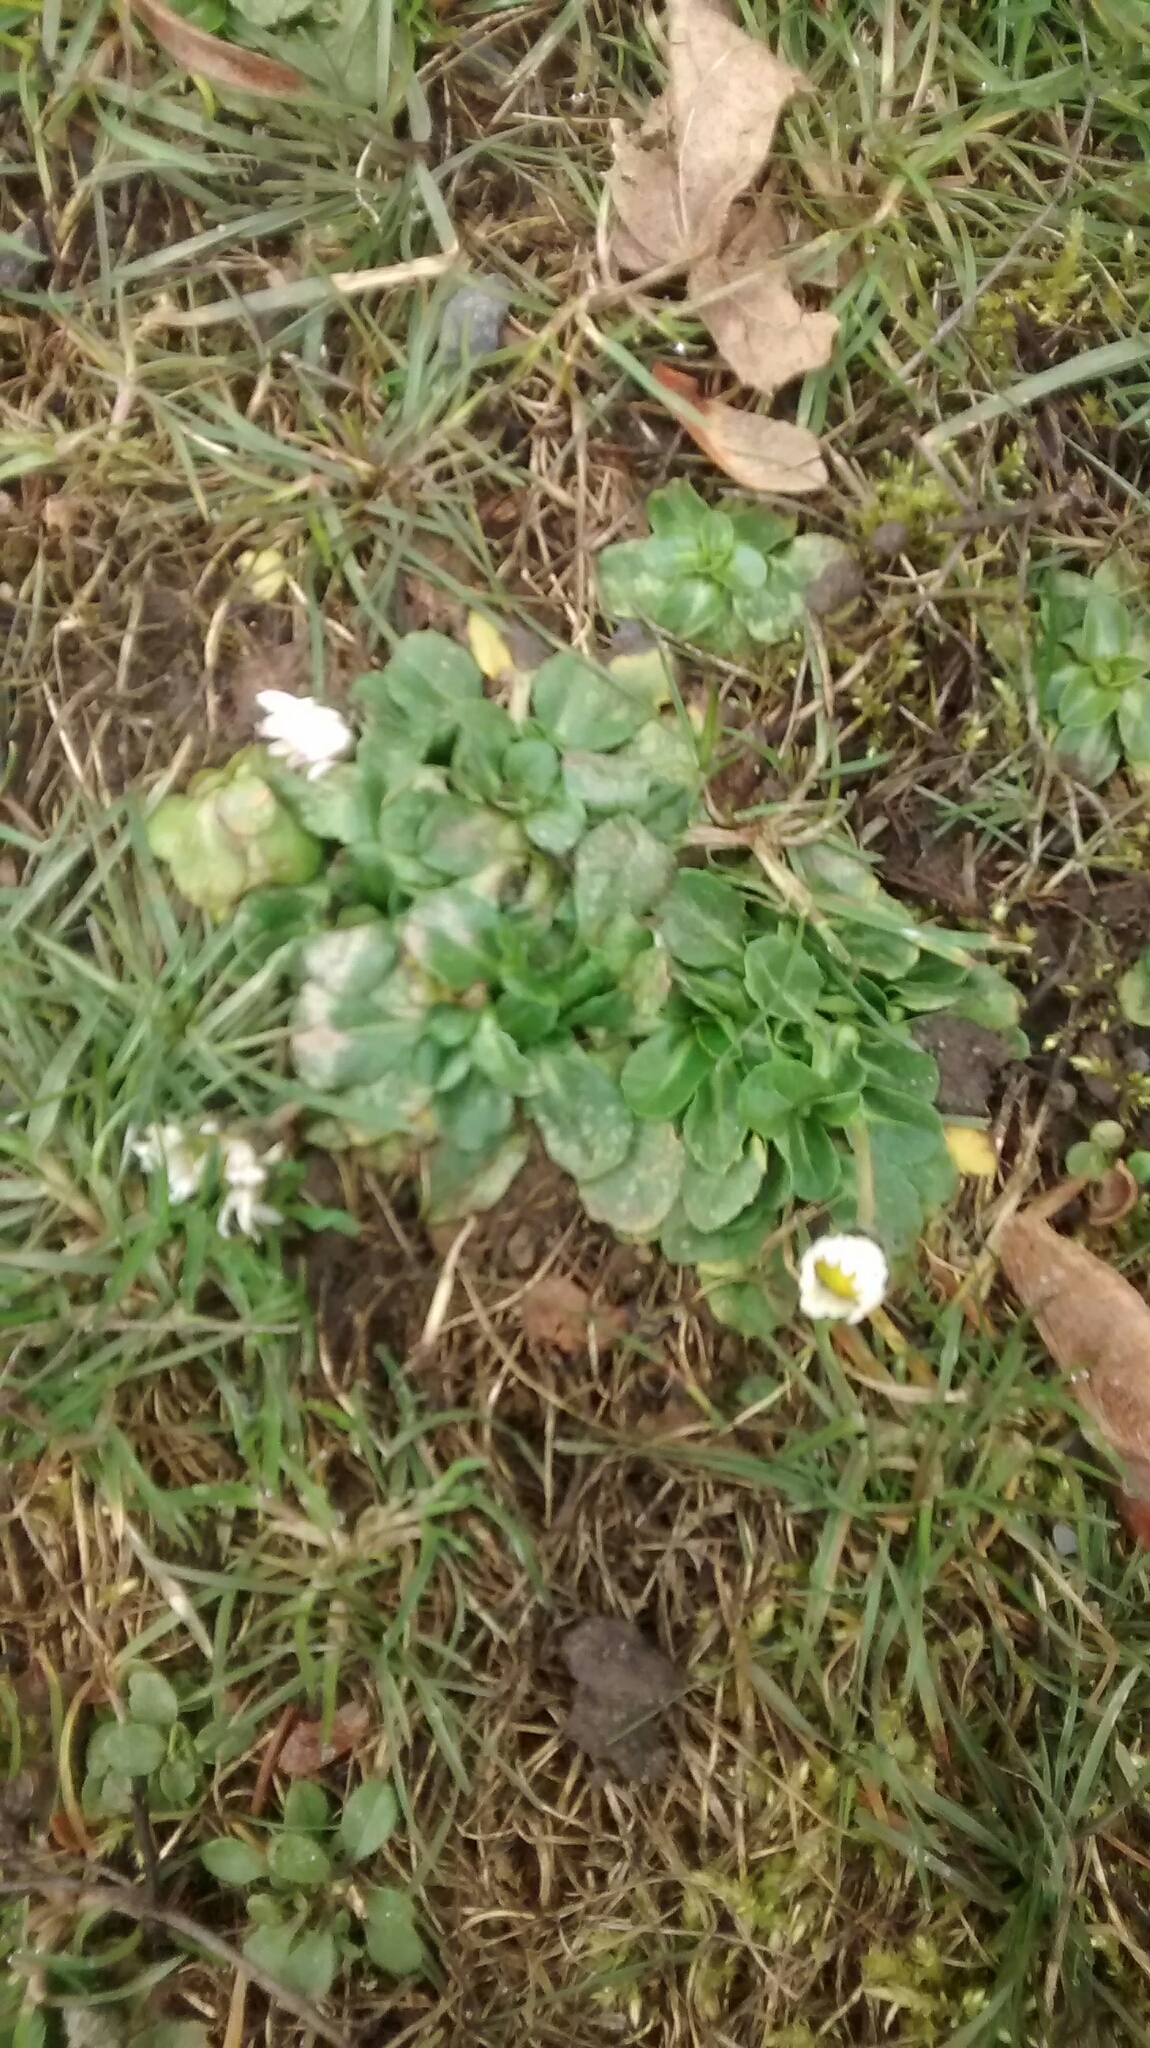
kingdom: Plantae
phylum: Tracheophyta
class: Magnoliopsida
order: Asterales
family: Asteraceae
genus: Bellis
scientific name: Bellis perennis
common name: Lawndaisy
